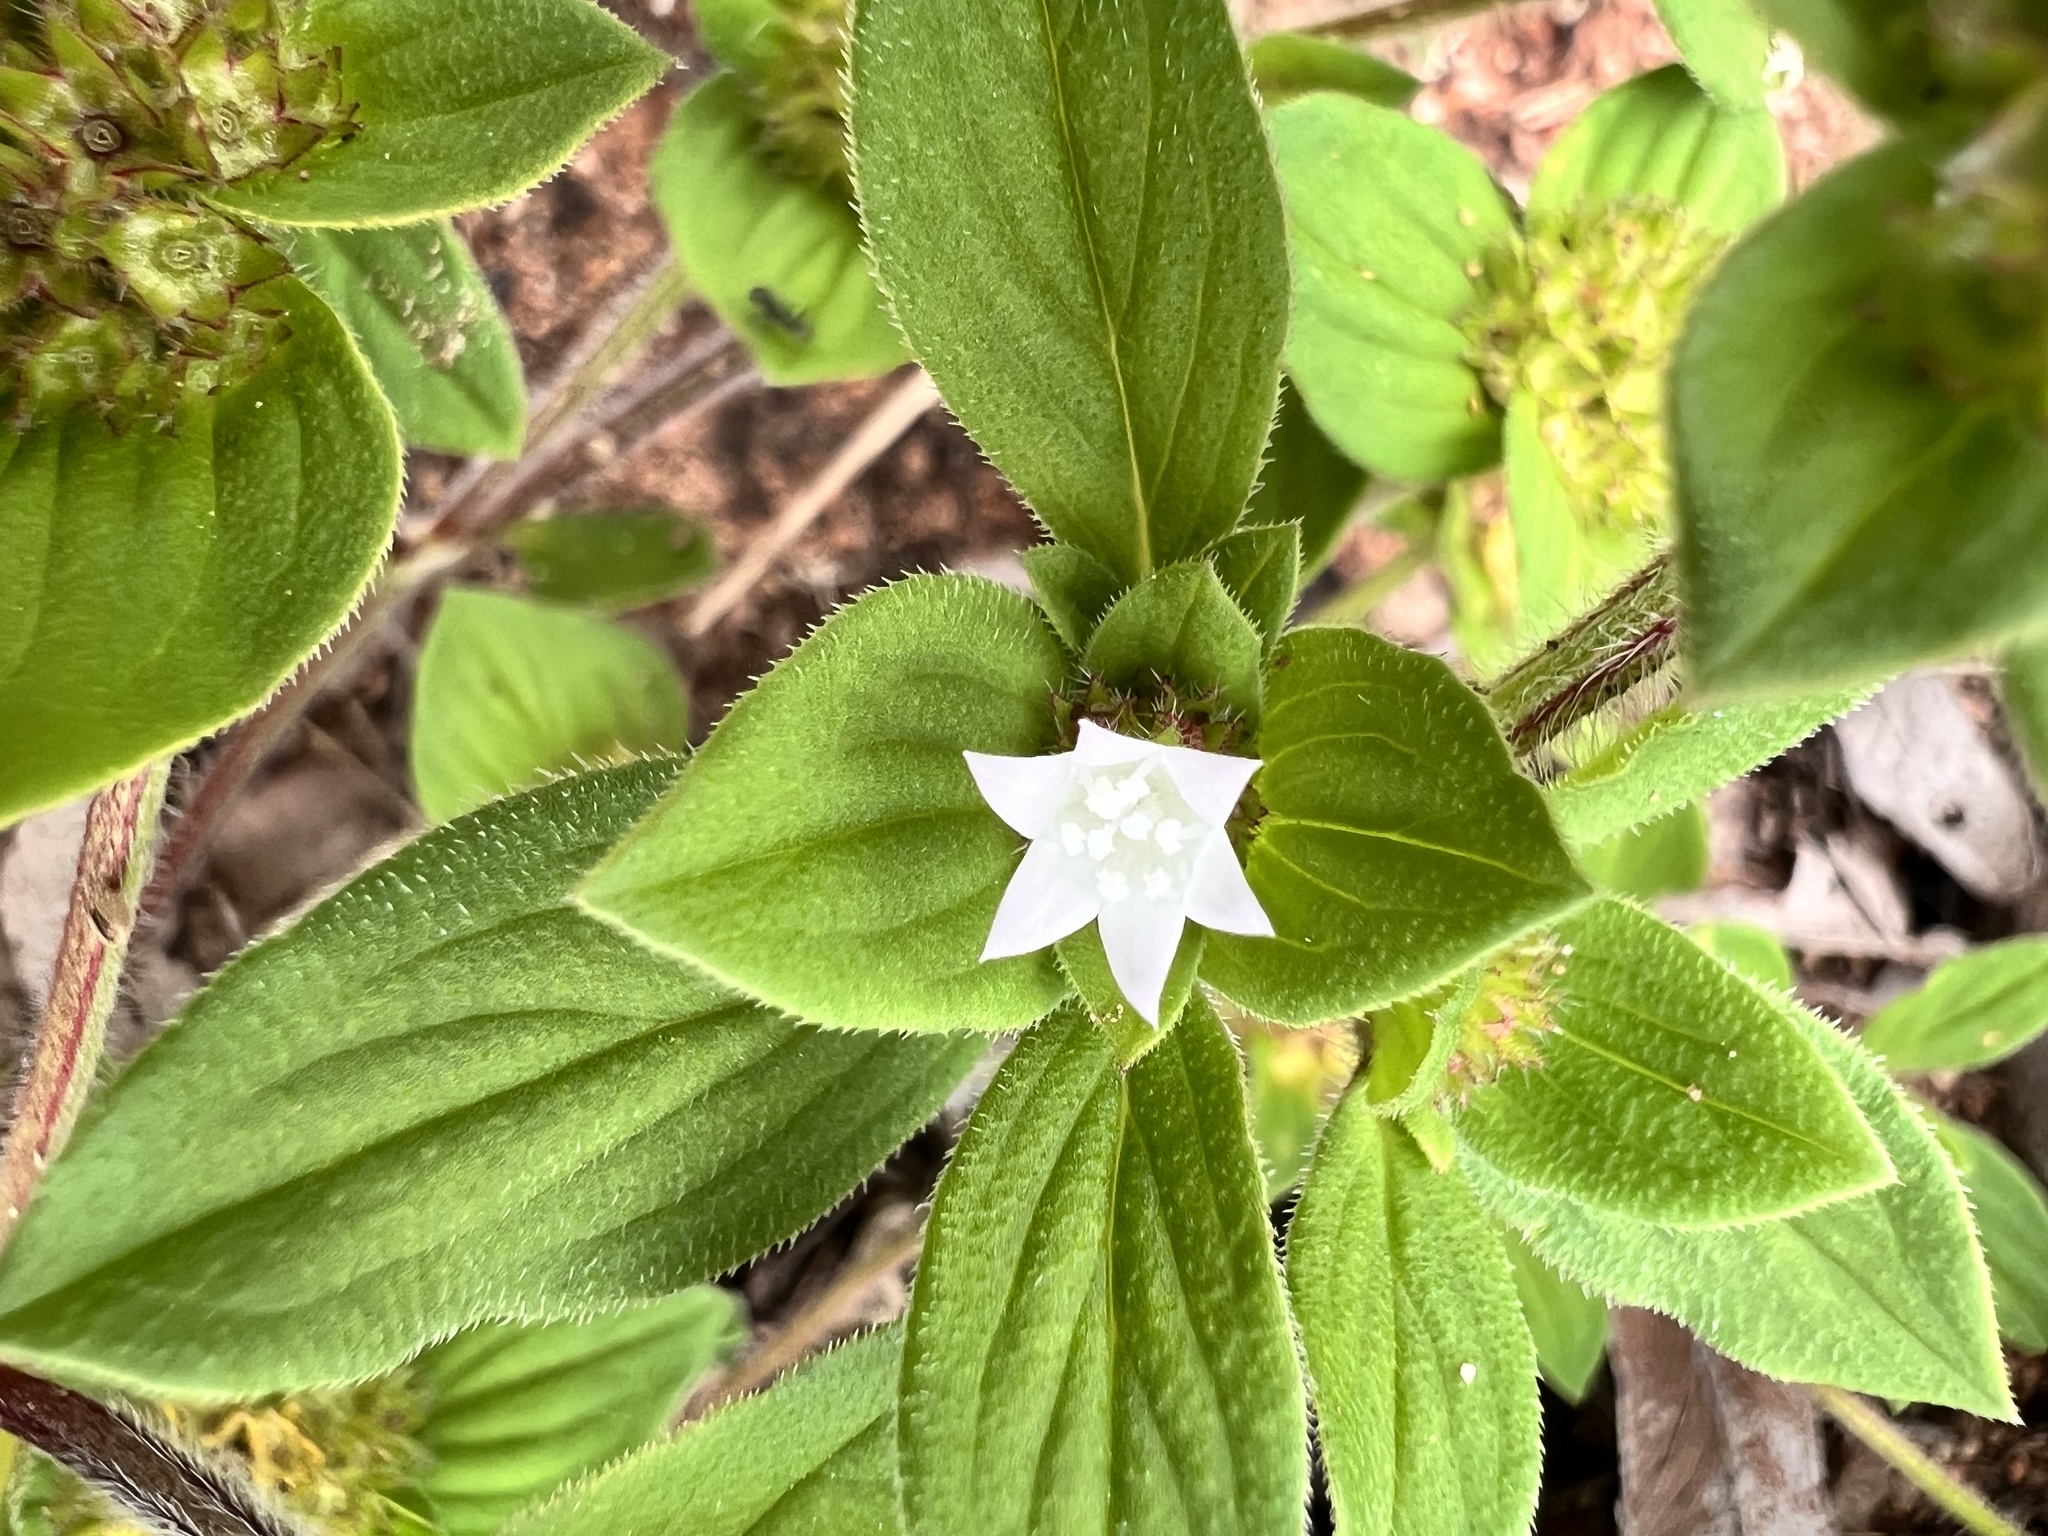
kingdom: Plantae
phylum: Tracheophyta
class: Magnoliopsida
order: Gentianales
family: Rubiaceae
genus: Richardia
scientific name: Richardia brasiliensis
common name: Tropical mexican clover
